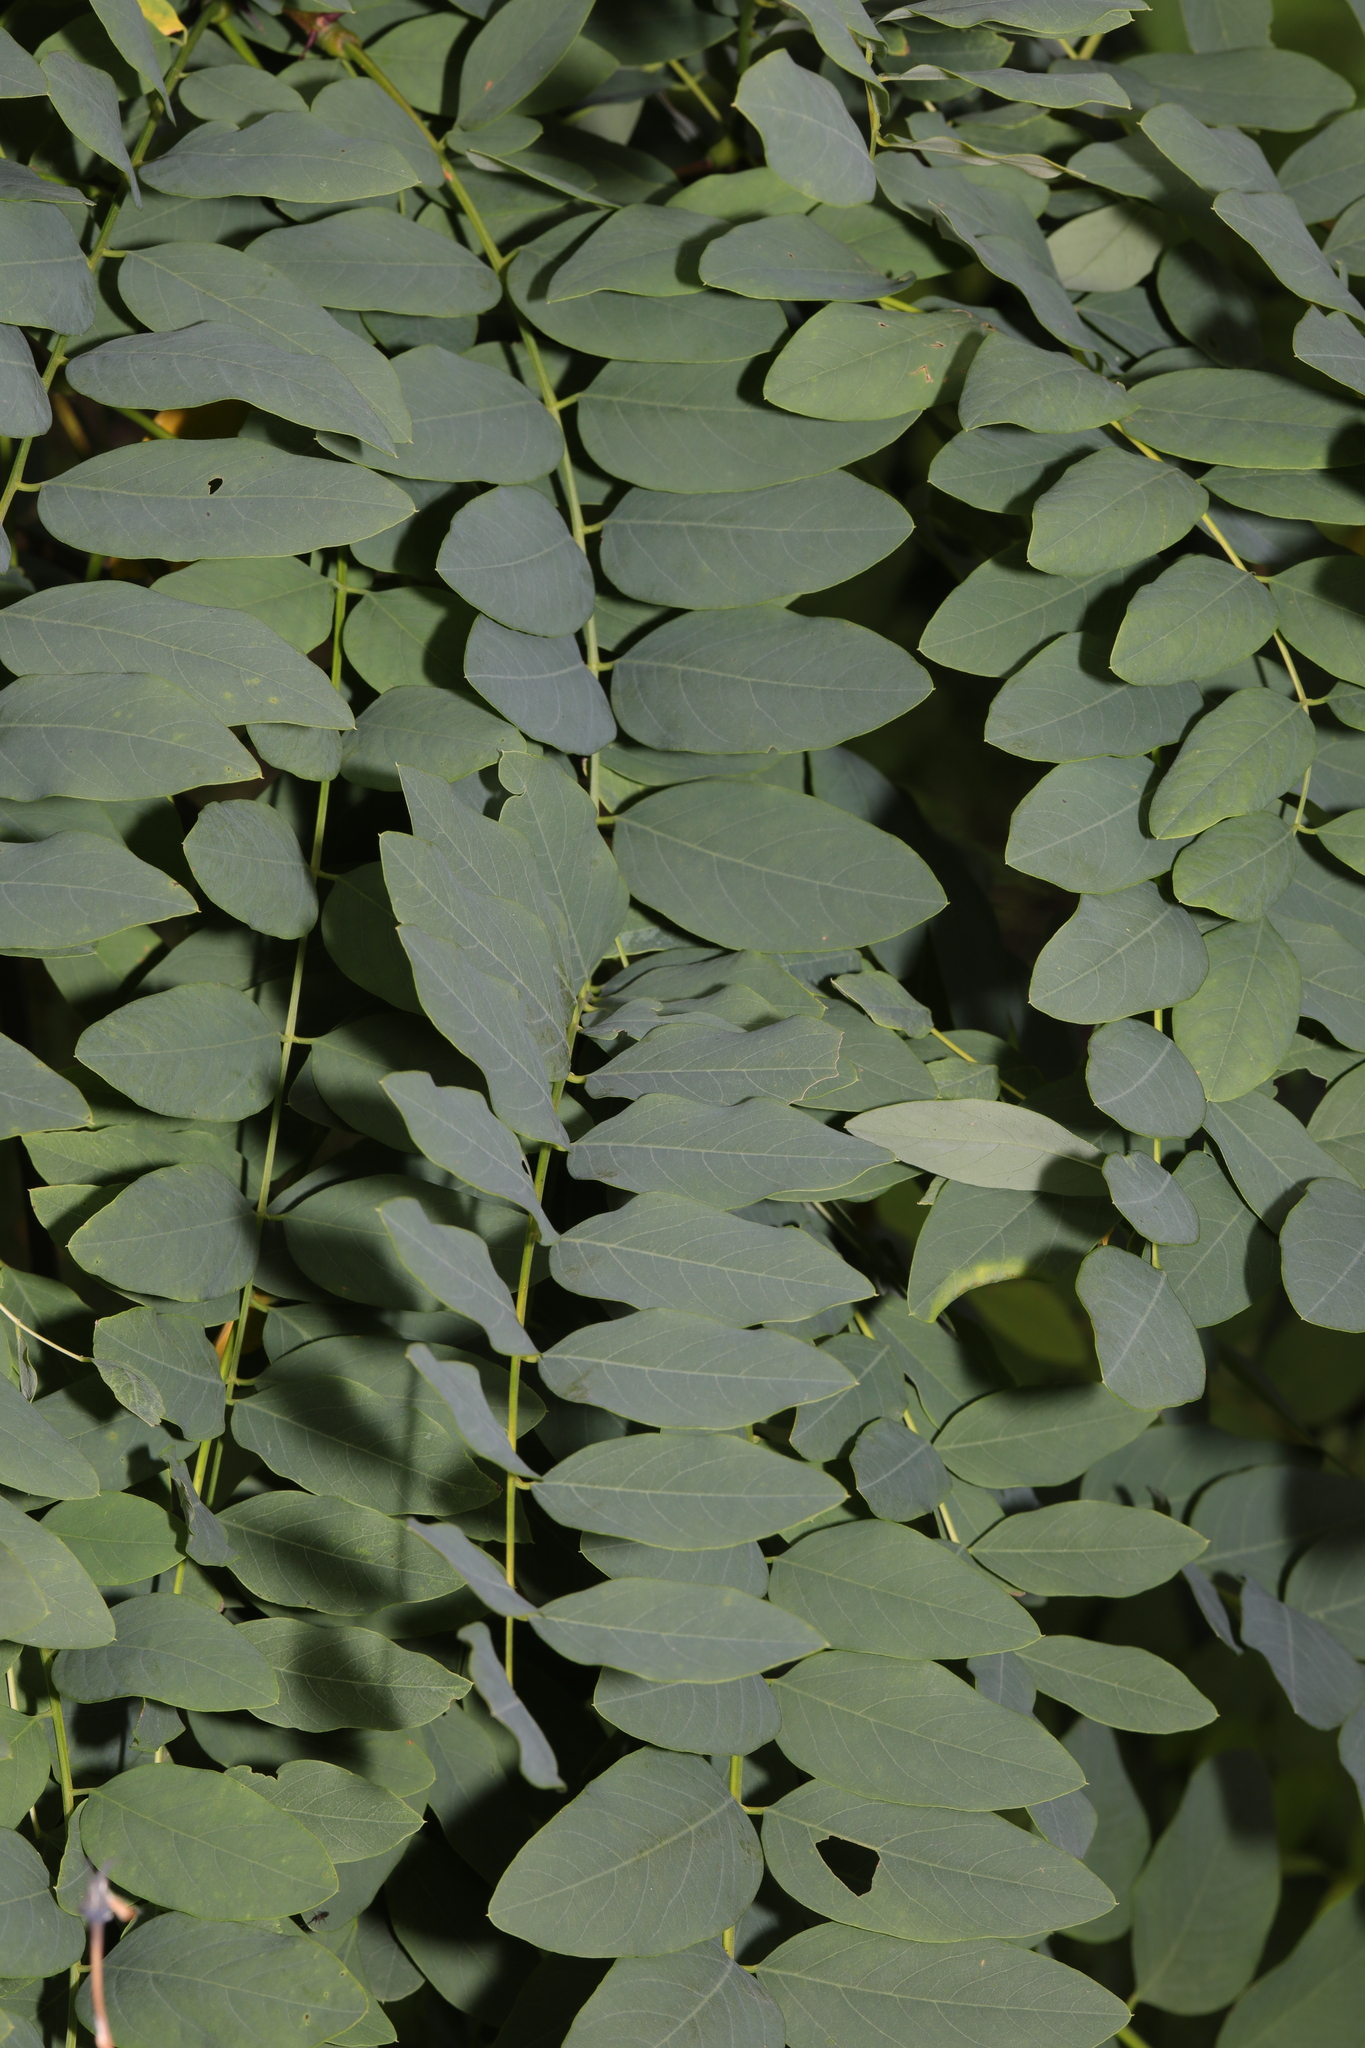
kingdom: Plantae
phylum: Tracheophyta
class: Magnoliopsida
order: Fabales
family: Fabaceae
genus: Robinia
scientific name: Robinia pseudoacacia
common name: Black locust
